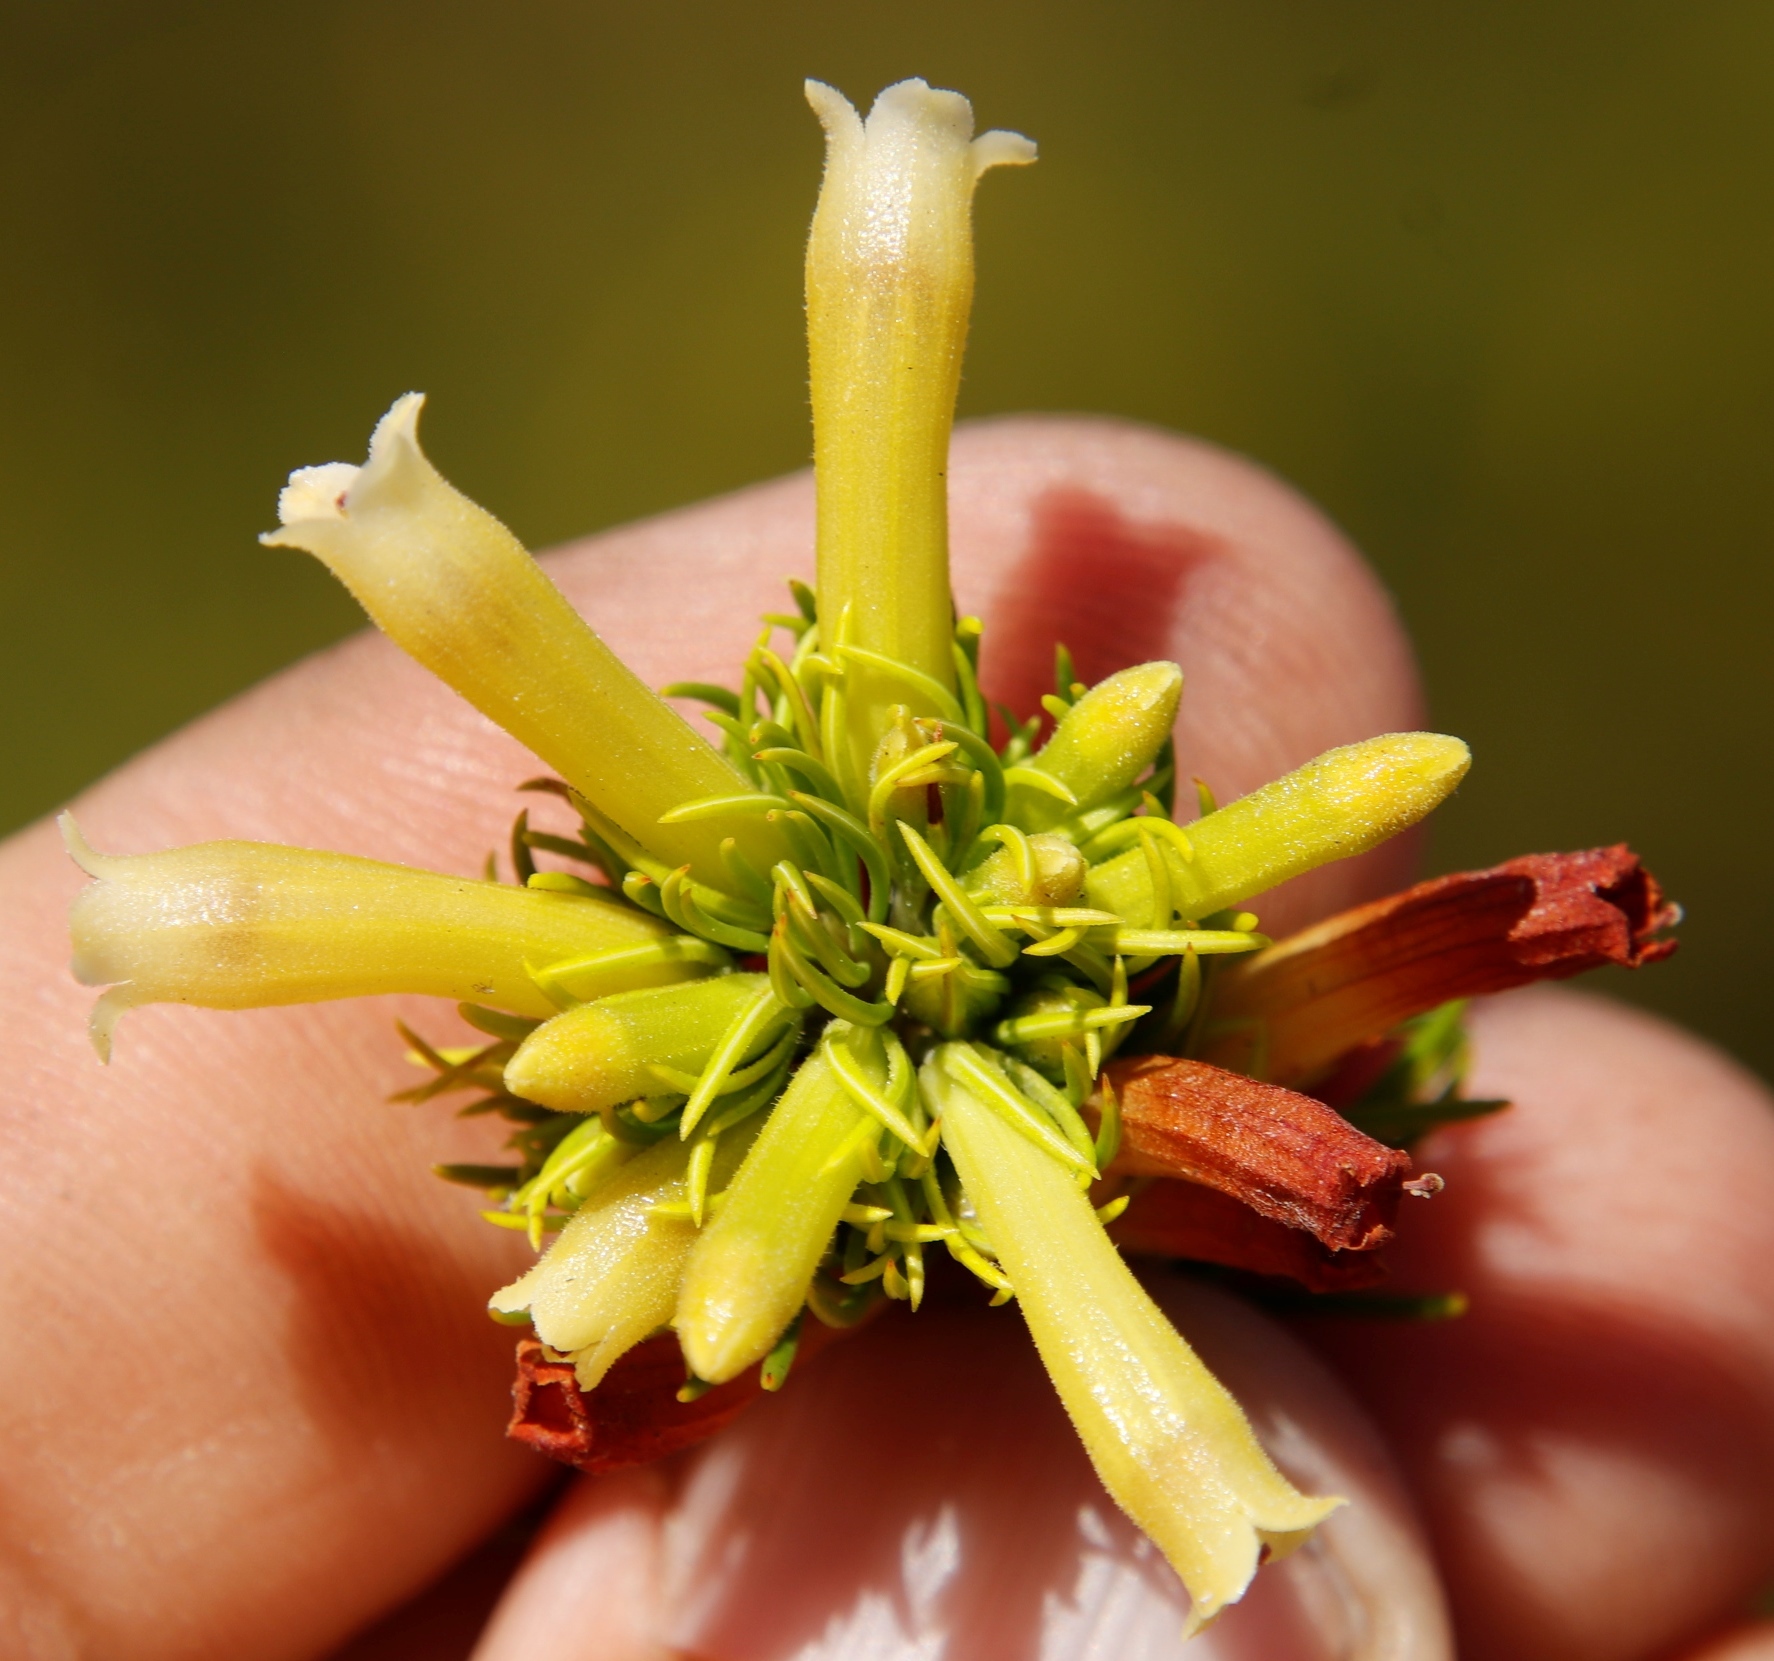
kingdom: Plantae
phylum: Tracheophyta
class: Magnoliopsida
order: Ericales
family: Ericaceae
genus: Erica
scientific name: Erica viscaria
